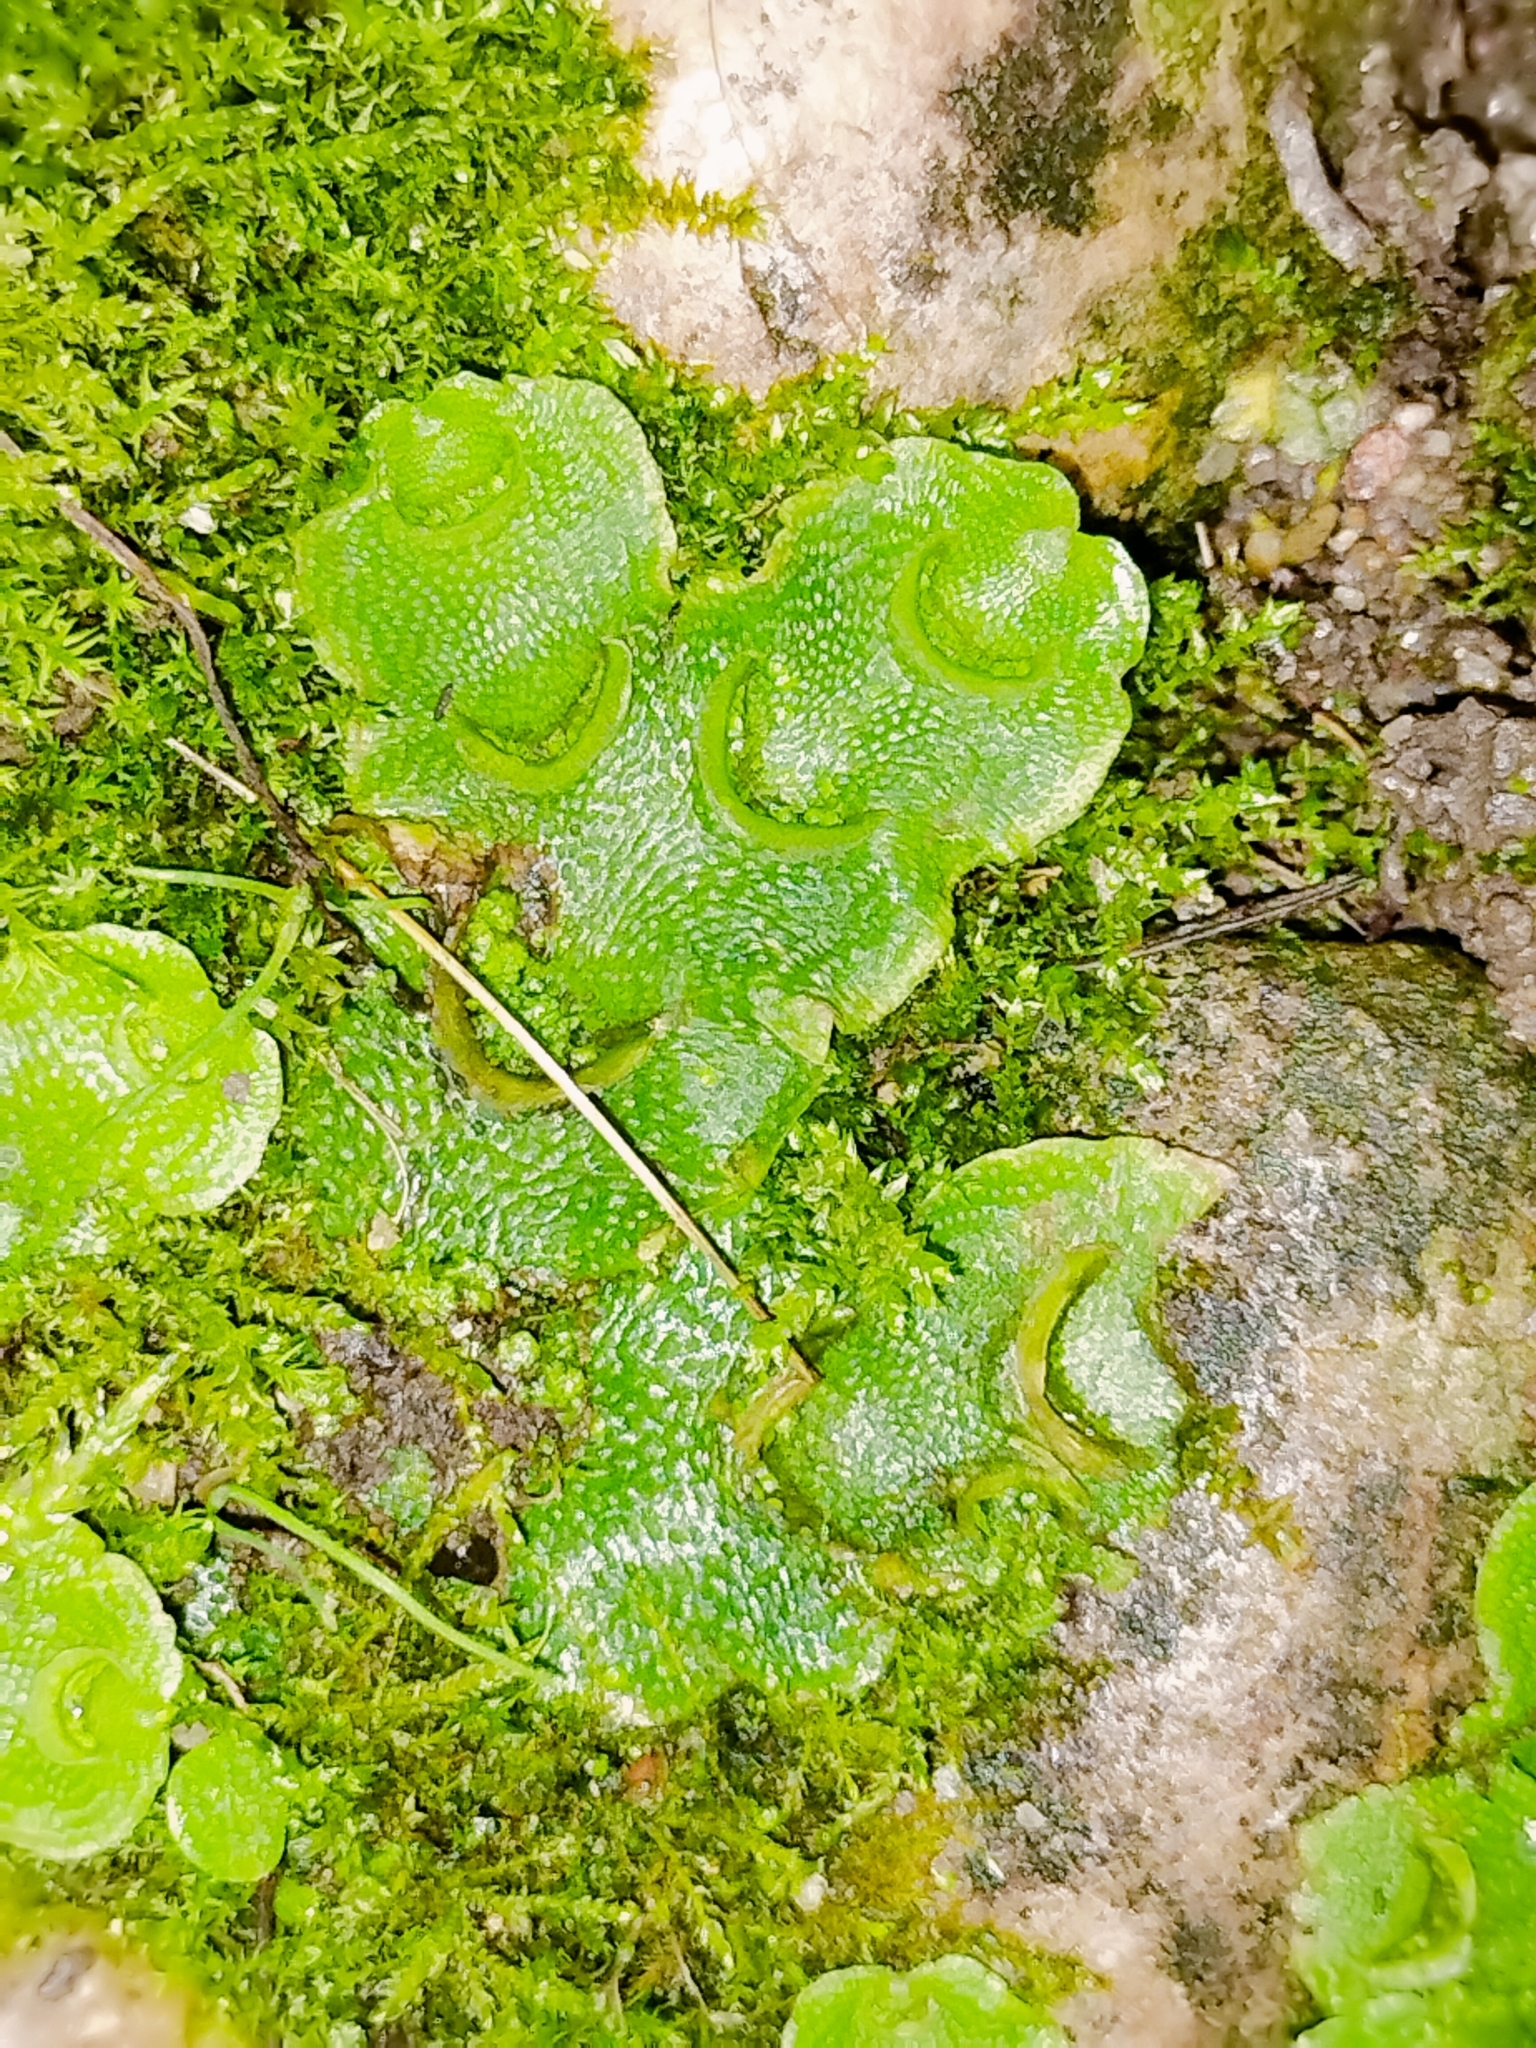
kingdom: Plantae
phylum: Marchantiophyta
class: Marchantiopsida
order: Lunulariales
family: Lunulariaceae
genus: Lunularia
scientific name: Lunularia cruciata
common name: Crescent-cup liverwort
